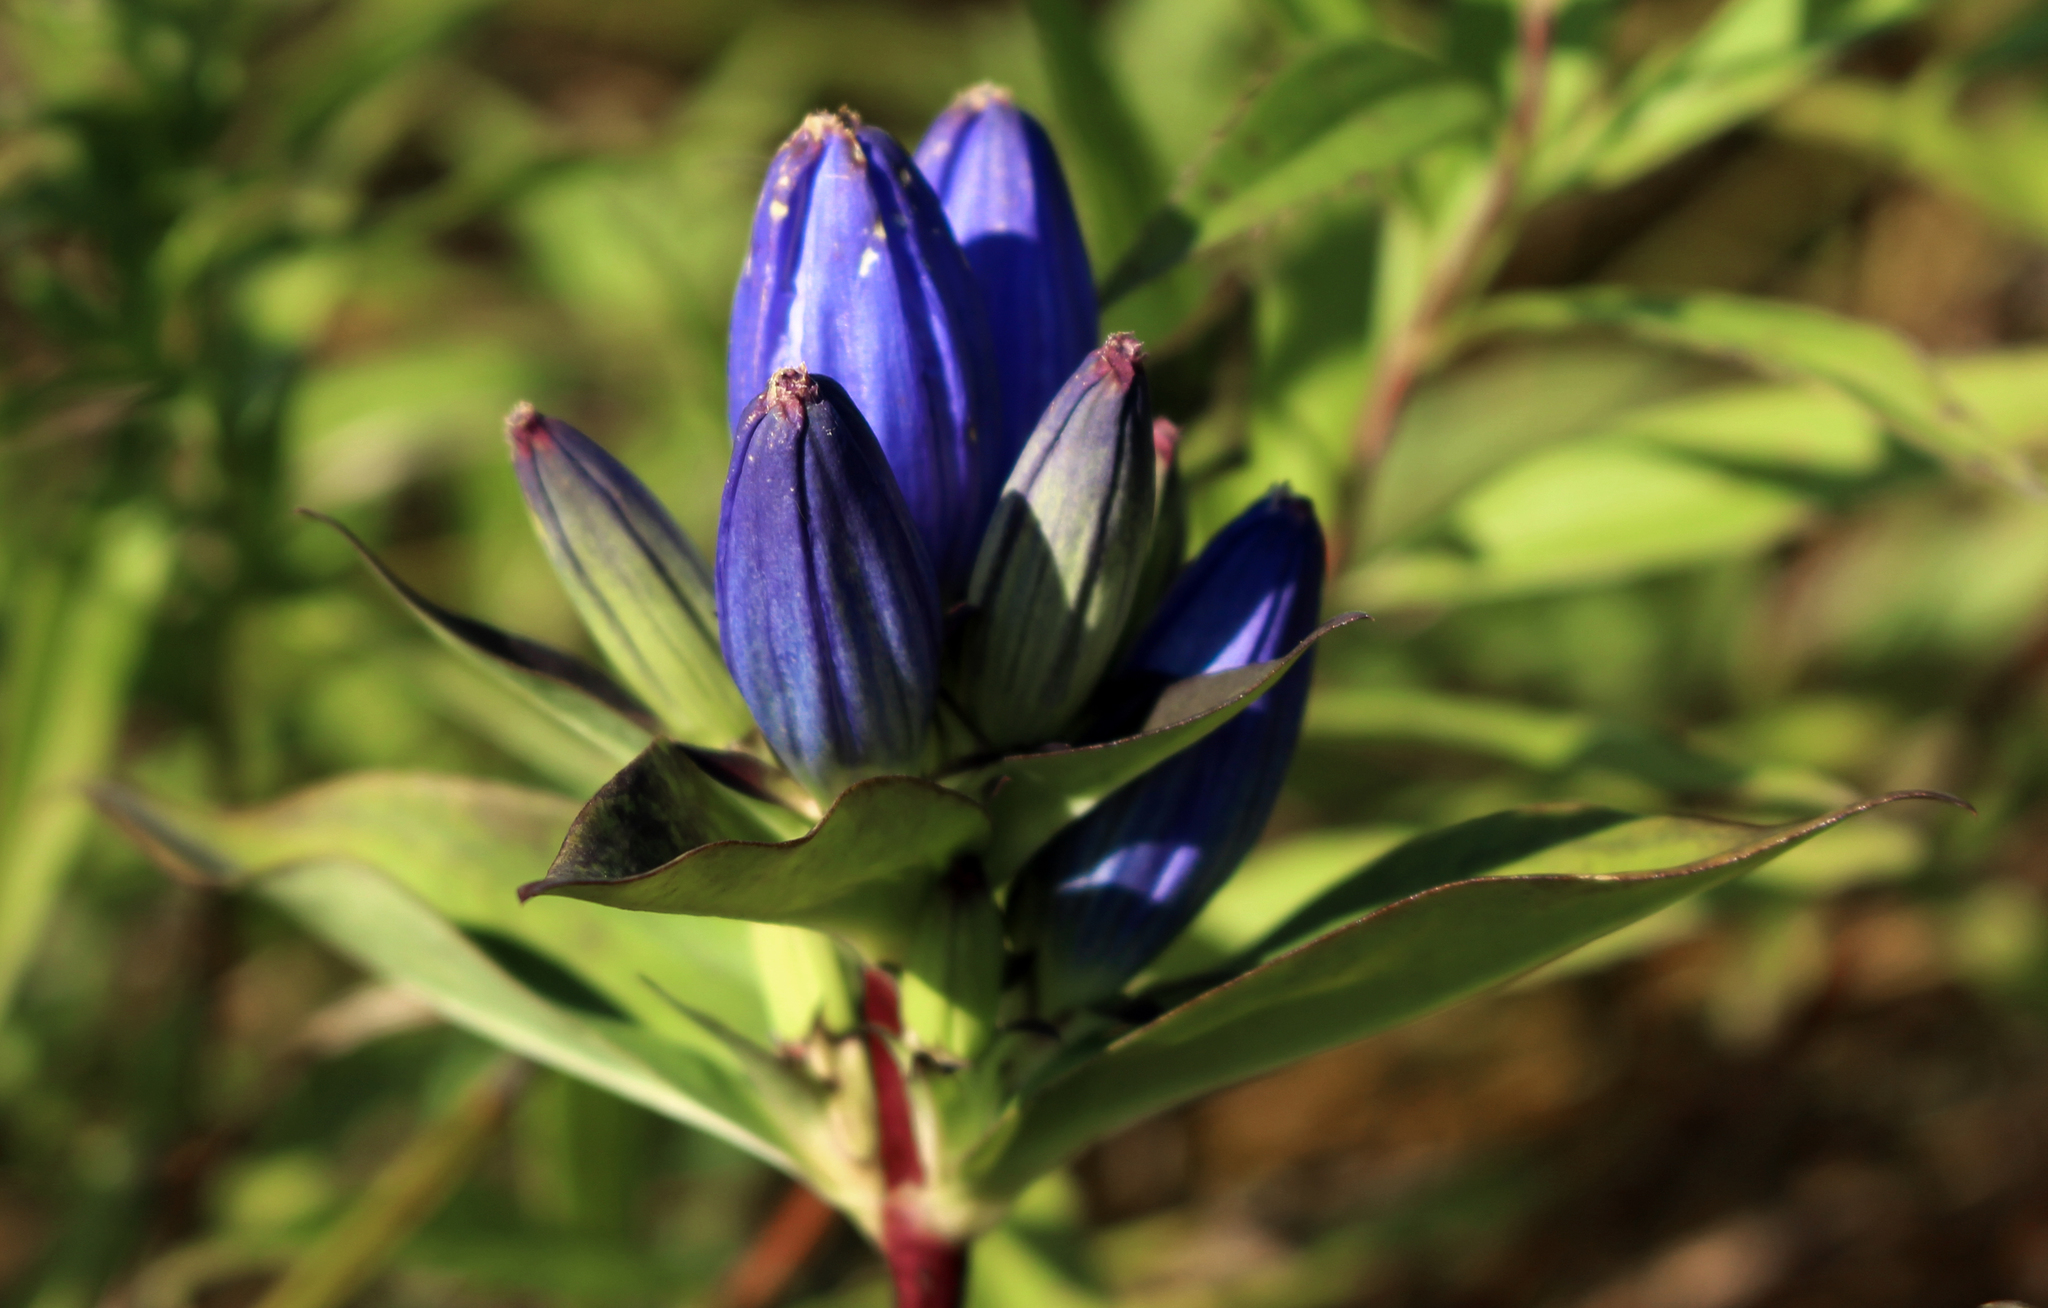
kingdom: Plantae
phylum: Tracheophyta
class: Magnoliopsida
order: Gentianales
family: Gentianaceae
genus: Gentiana
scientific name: Gentiana andrewsii
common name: Bottle gentian
